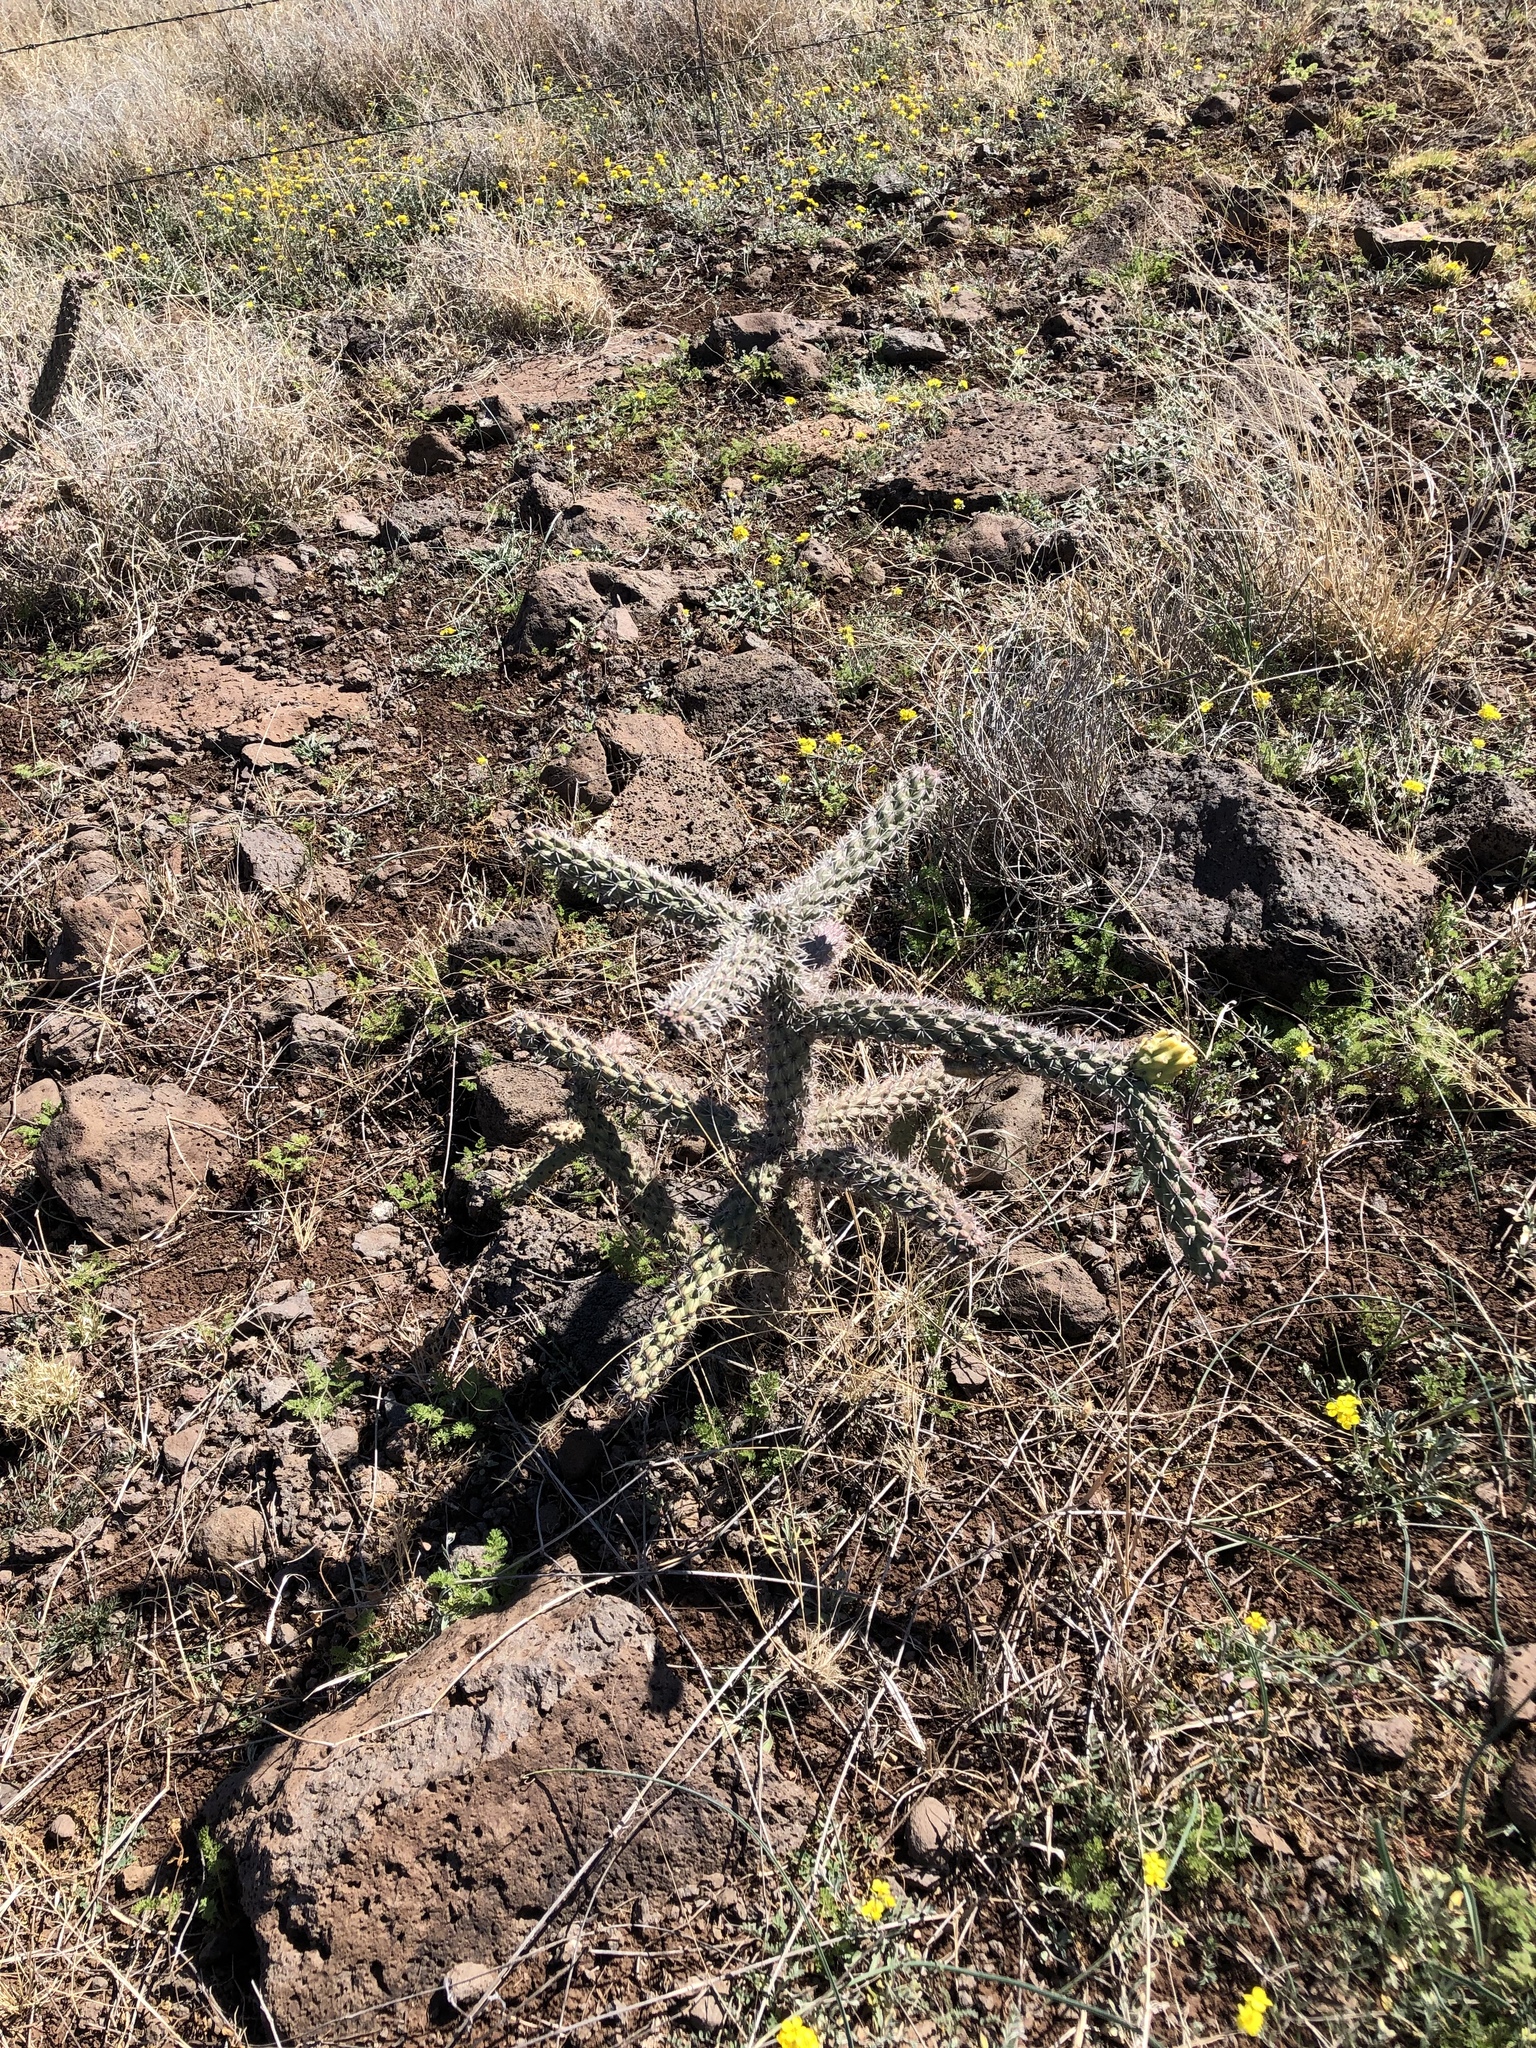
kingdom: Plantae
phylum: Tracheophyta
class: Magnoliopsida
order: Caryophyllales
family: Cactaceae
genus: Cylindropuntia
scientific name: Cylindropuntia imbricata
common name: Candelabrum cactus
